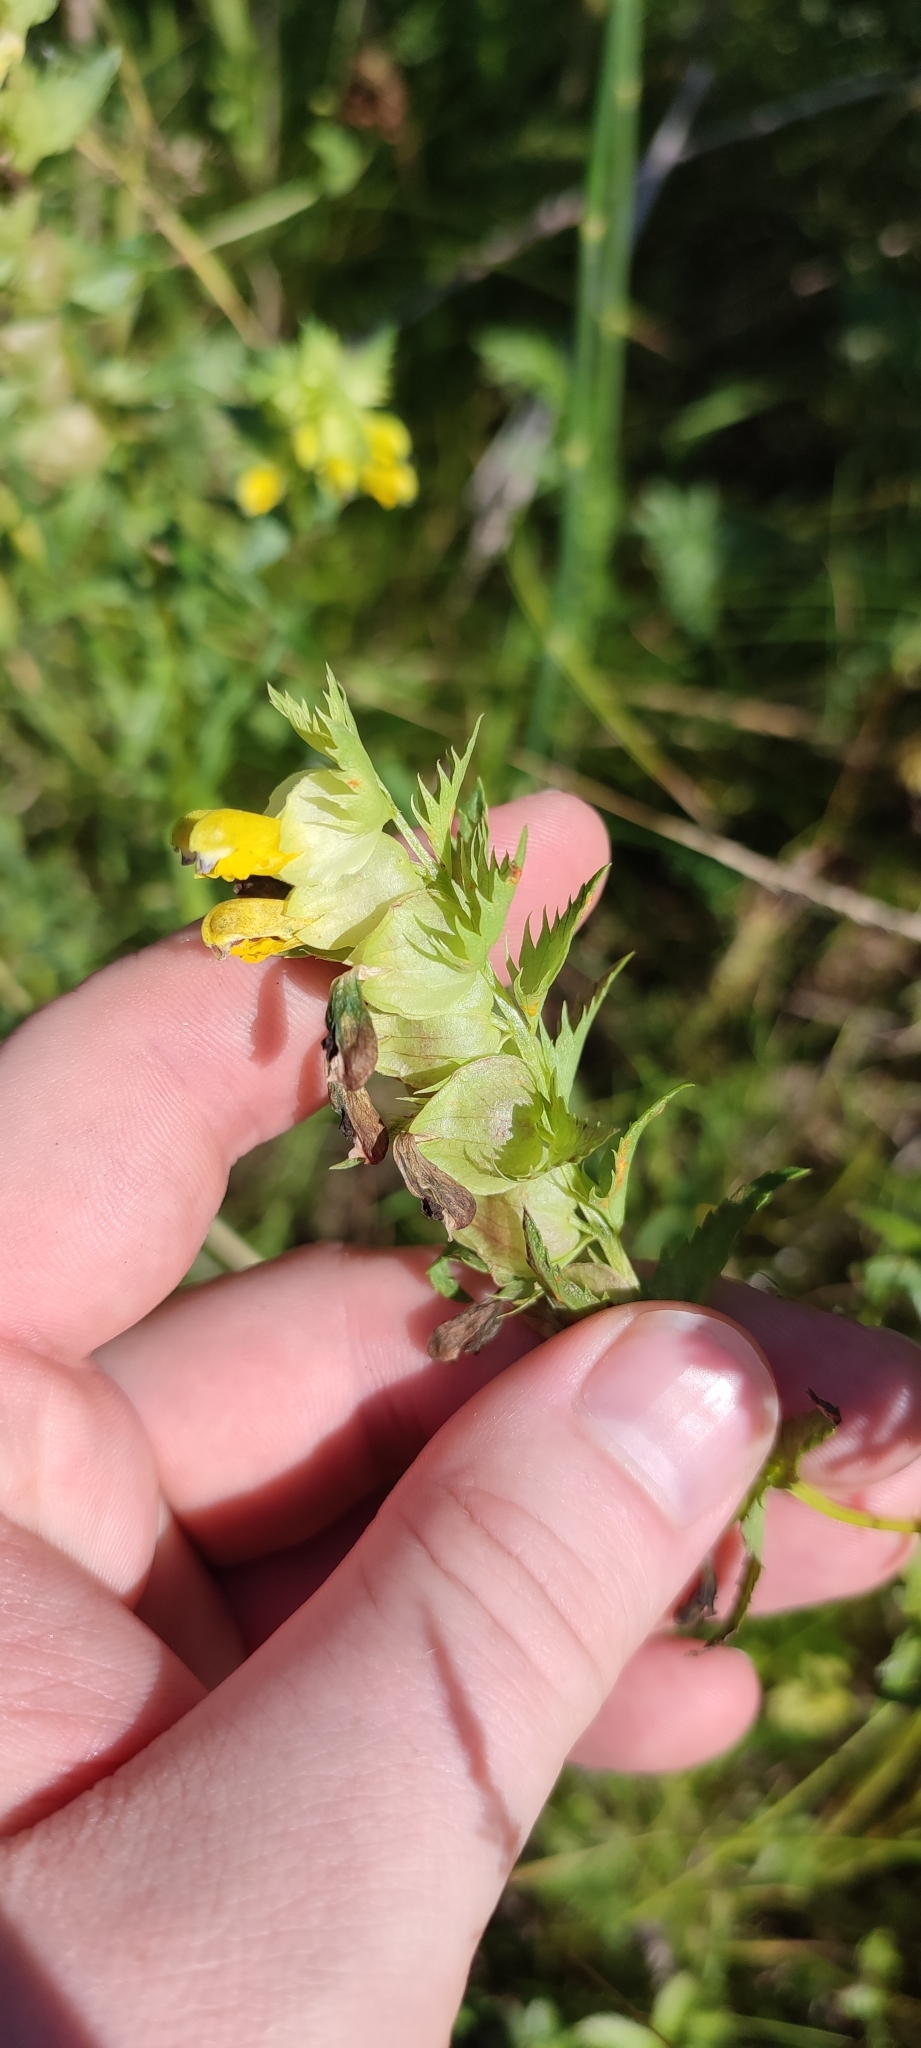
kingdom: Plantae
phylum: Tracheophyta
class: Magnoliopsida
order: Lamiales
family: Orobanchaceae
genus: Rhinanthus
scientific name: Rhinanthus serotinus
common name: Late-flowering yellow rattle
